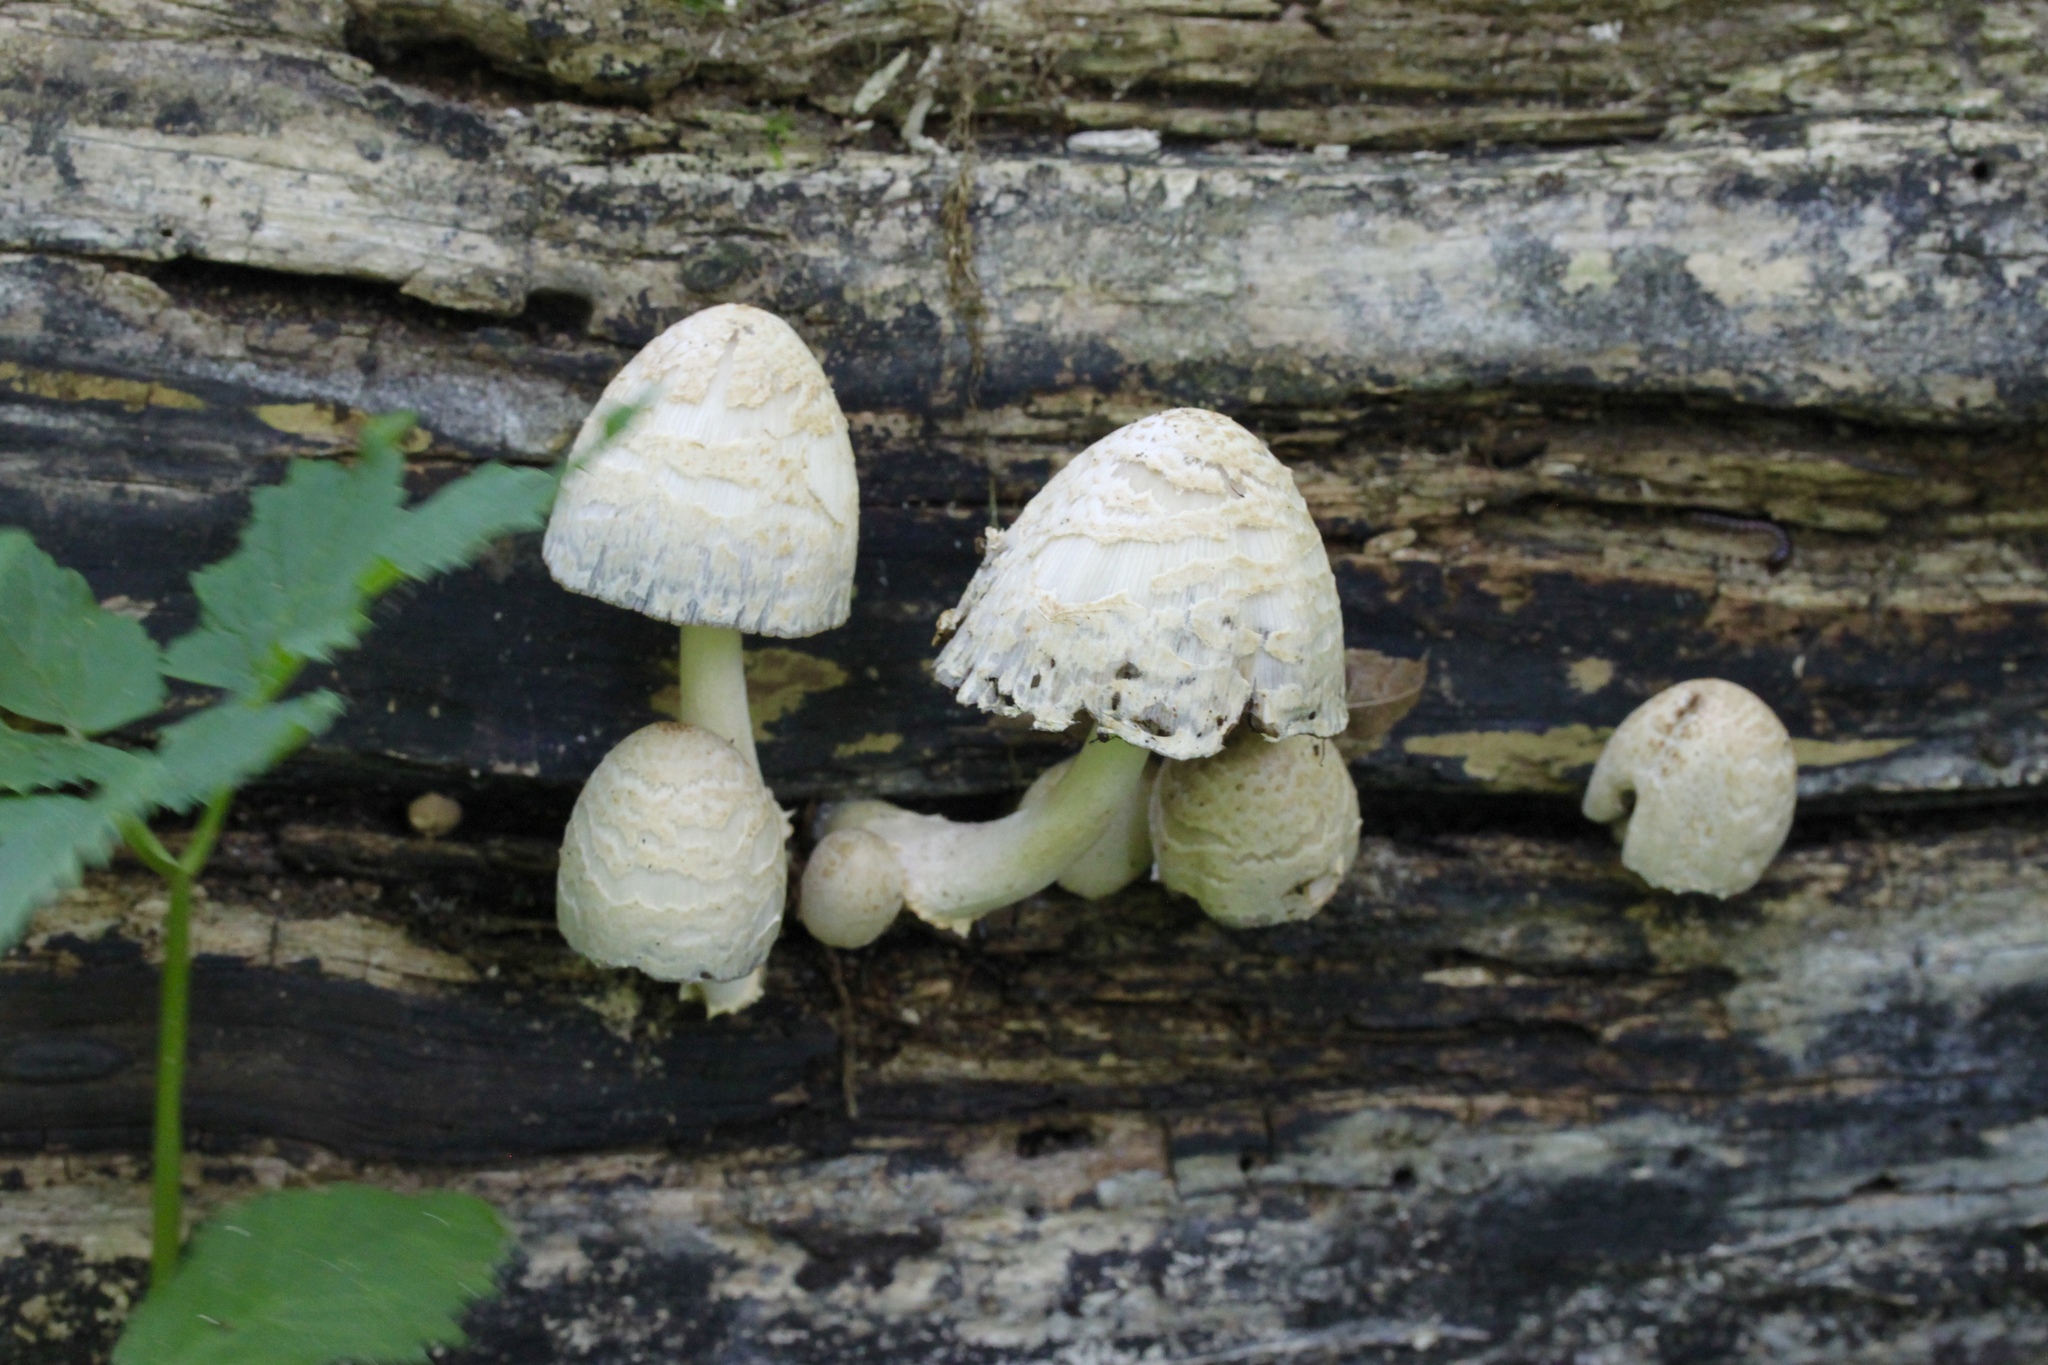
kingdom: Fungi
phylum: Basidiomycota
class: Agaricomycetes
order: Agaricales
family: Psathyrellaceae
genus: Coprinopsis
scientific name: Coprinopsis variegata
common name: Scaly ink cap
